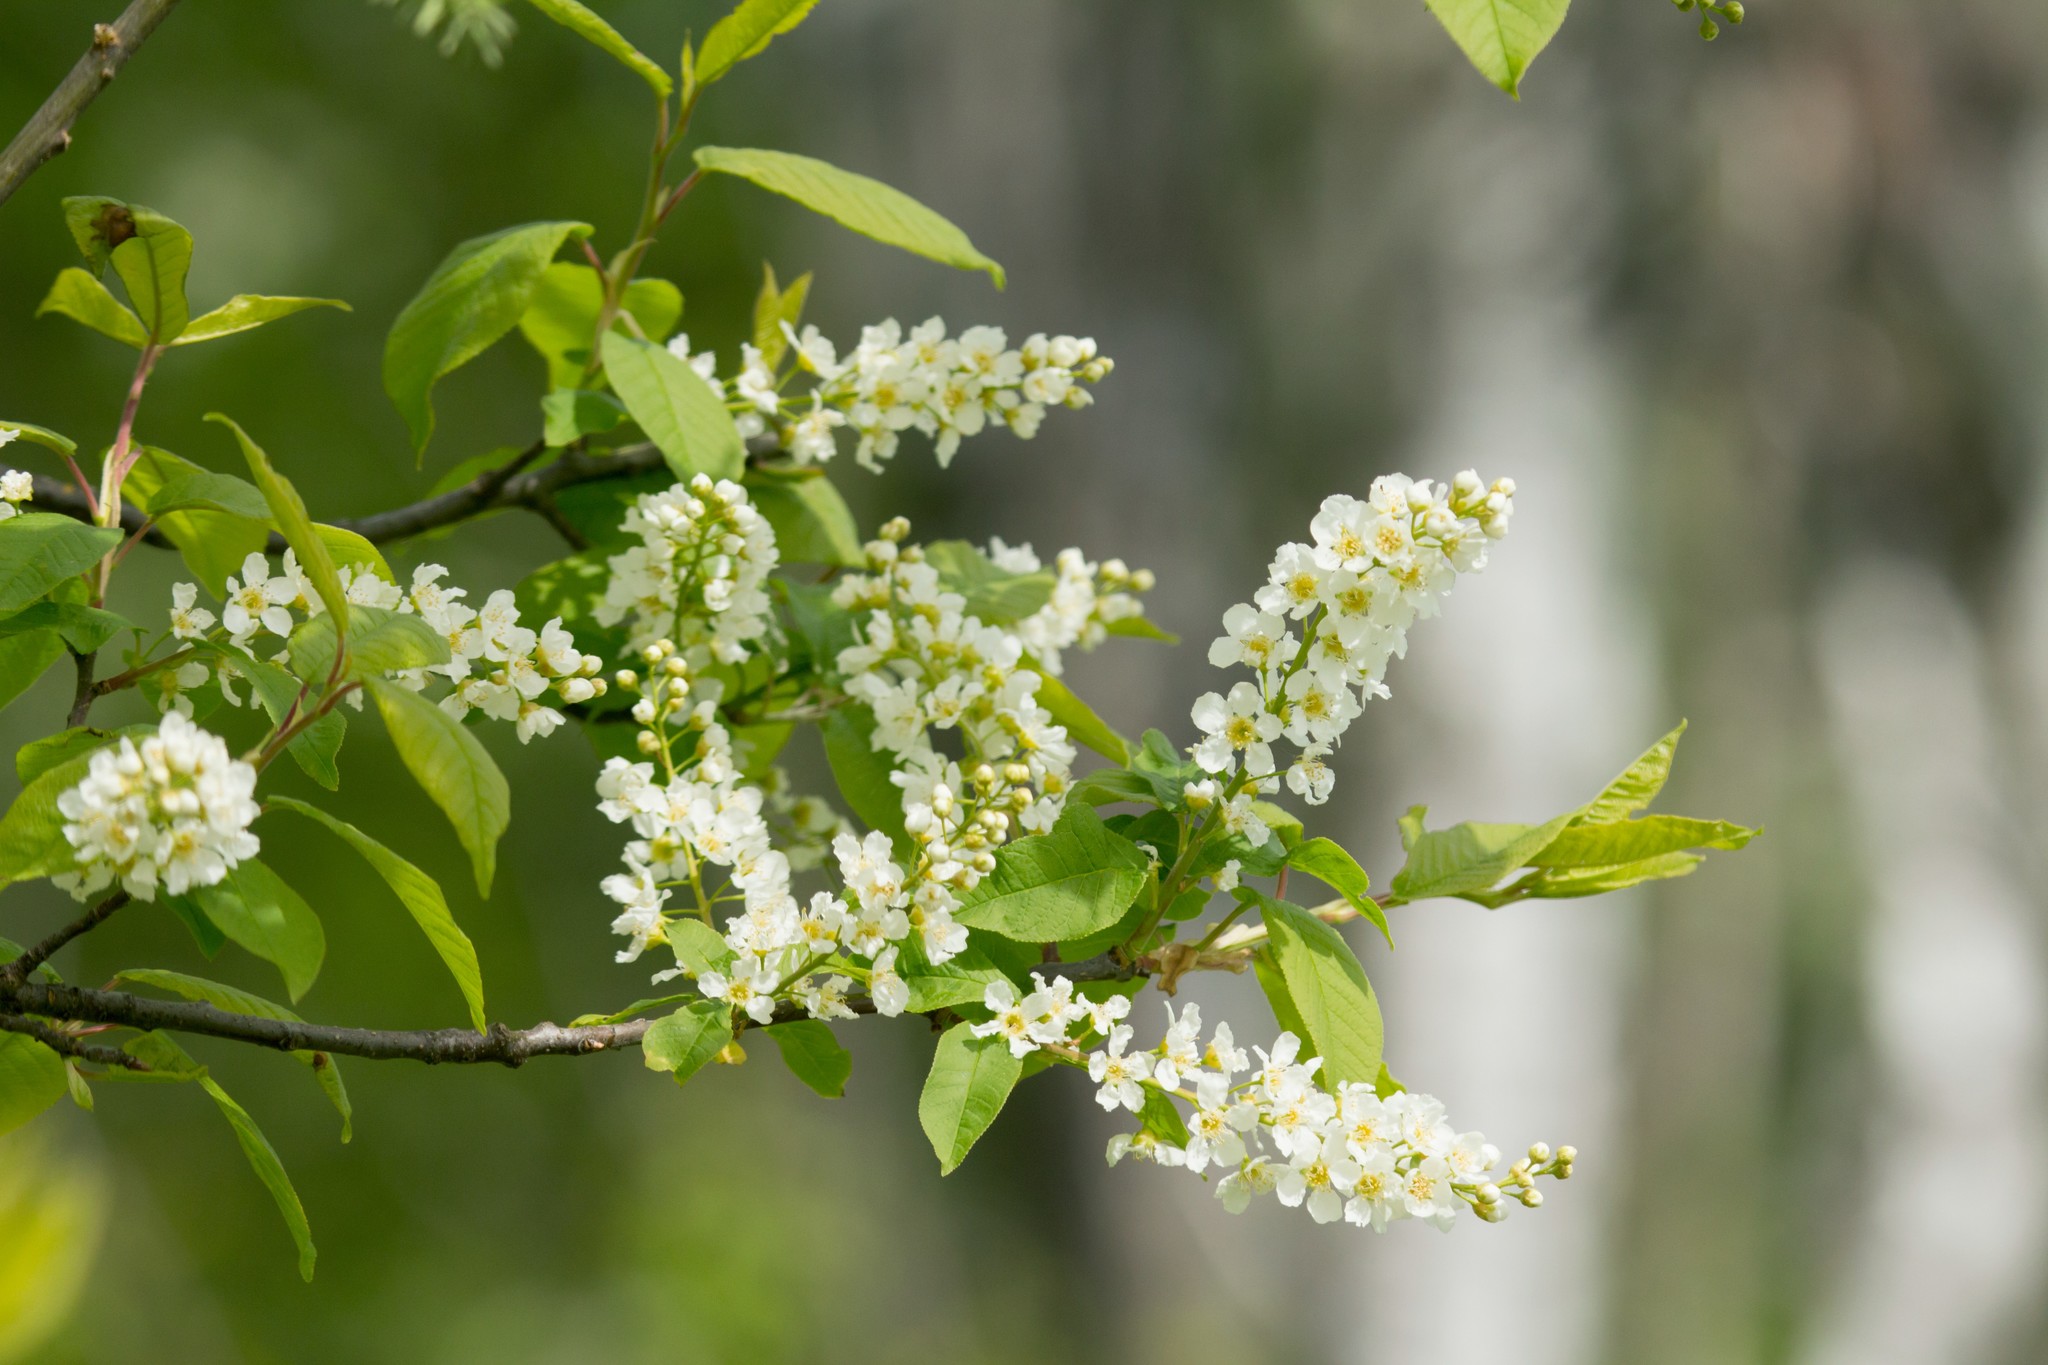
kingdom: Plantae
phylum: Tracheophyta
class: Magnoliopsida
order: Rosales
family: Rosaceae
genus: Prunus
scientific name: Prunus padus
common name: Bird cherry
